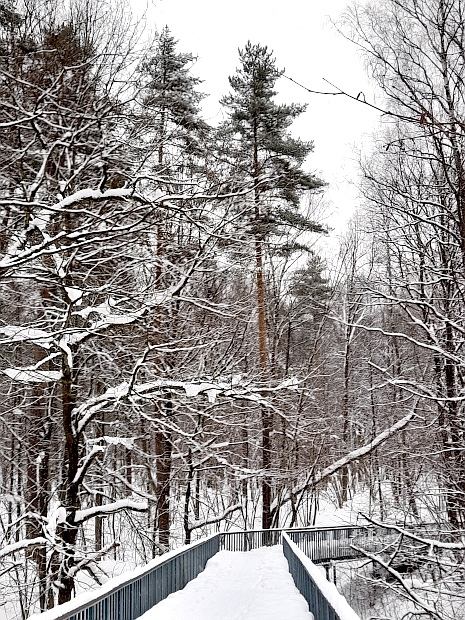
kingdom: Plantae
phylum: Tracheophyta
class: Pinopsida
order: Pinales
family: Pinaceae
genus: Pinus
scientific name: Pinus sylvestris
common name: Scots pine
